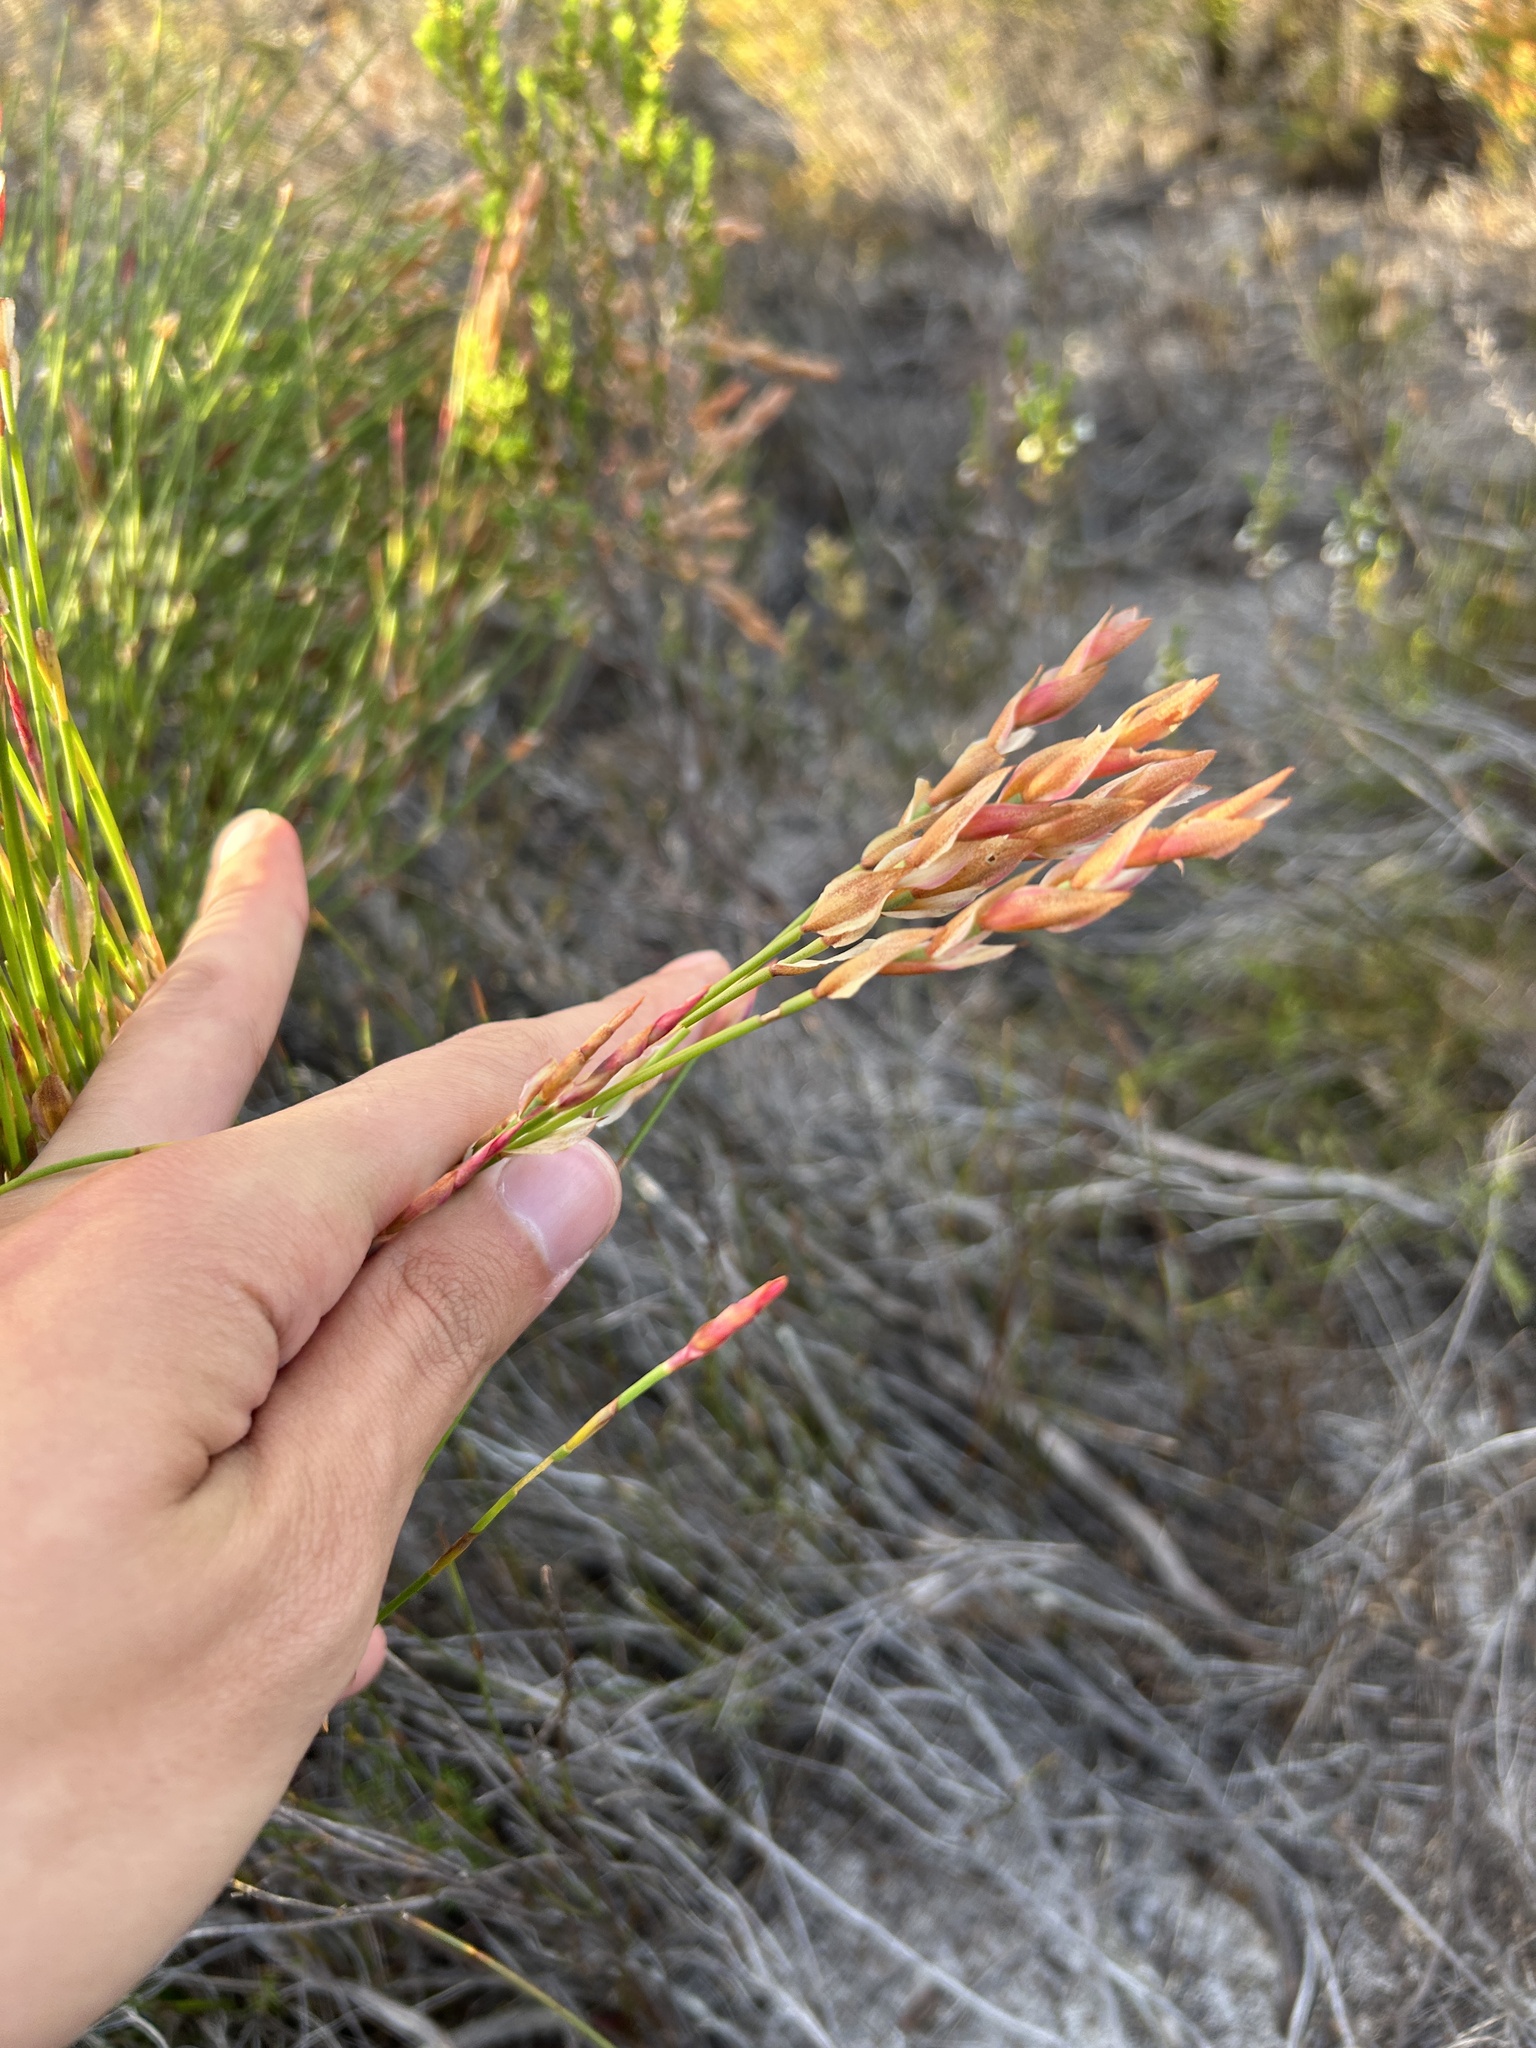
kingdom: Plantae
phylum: Tracheophyta
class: Liliopsida
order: Poales
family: Restionaceae
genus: Elegia
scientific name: Elegia stipularis
